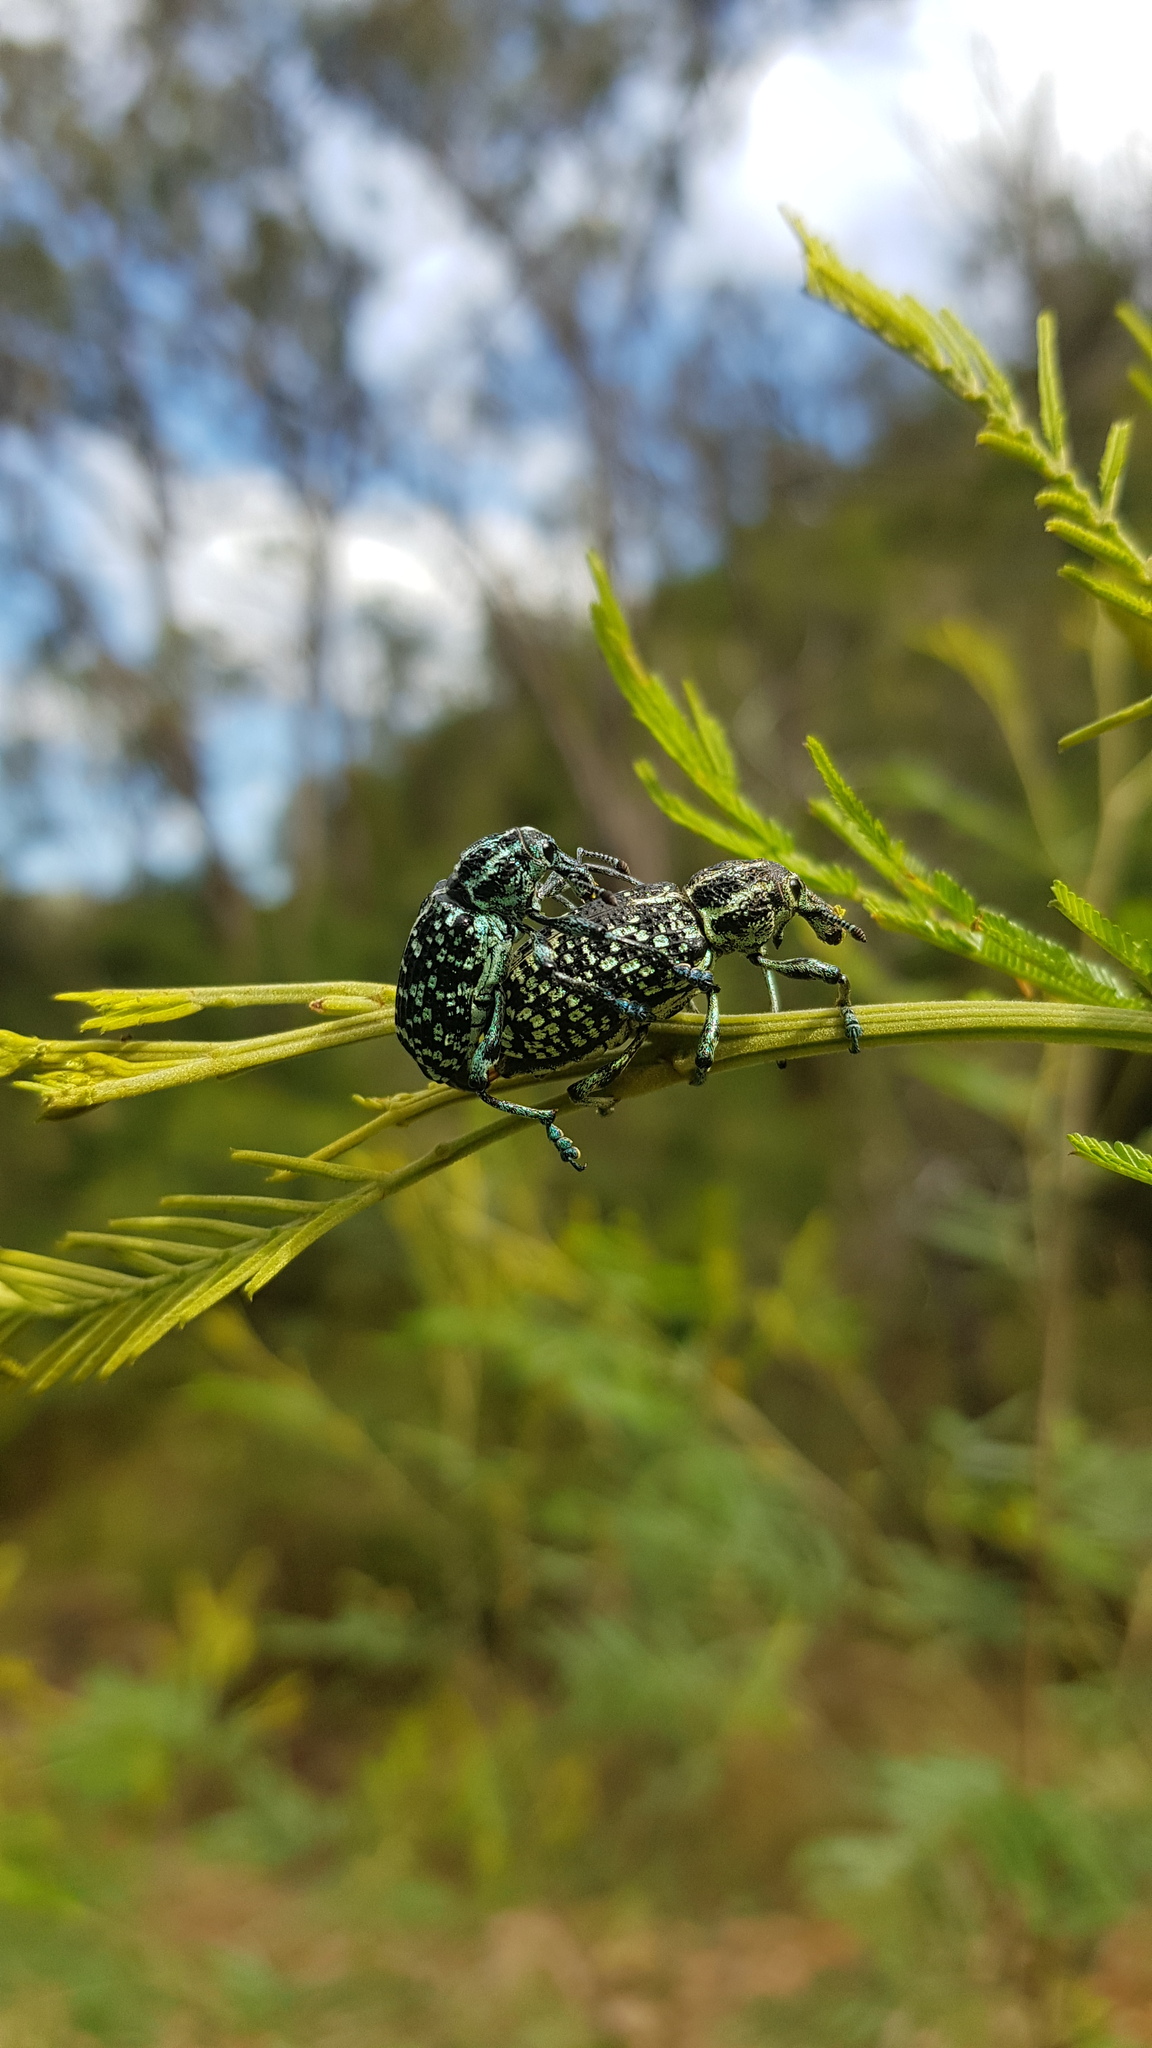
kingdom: Animalia
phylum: Arthropoda
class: Insecta
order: Coleoptera
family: Curculionidae
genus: Chrysolopus
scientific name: Chrysolopus spectabilis
